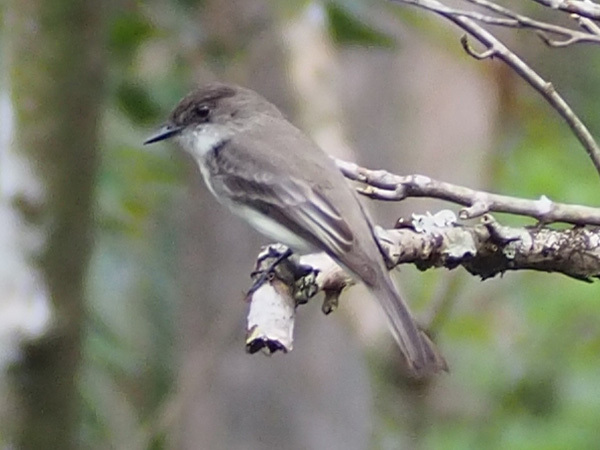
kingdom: Animalia
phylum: Chordata
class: Aves
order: Passeriformes
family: Tyrannidae
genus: Sayornis
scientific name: Sayornis phoebe
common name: Eastern phoebe
